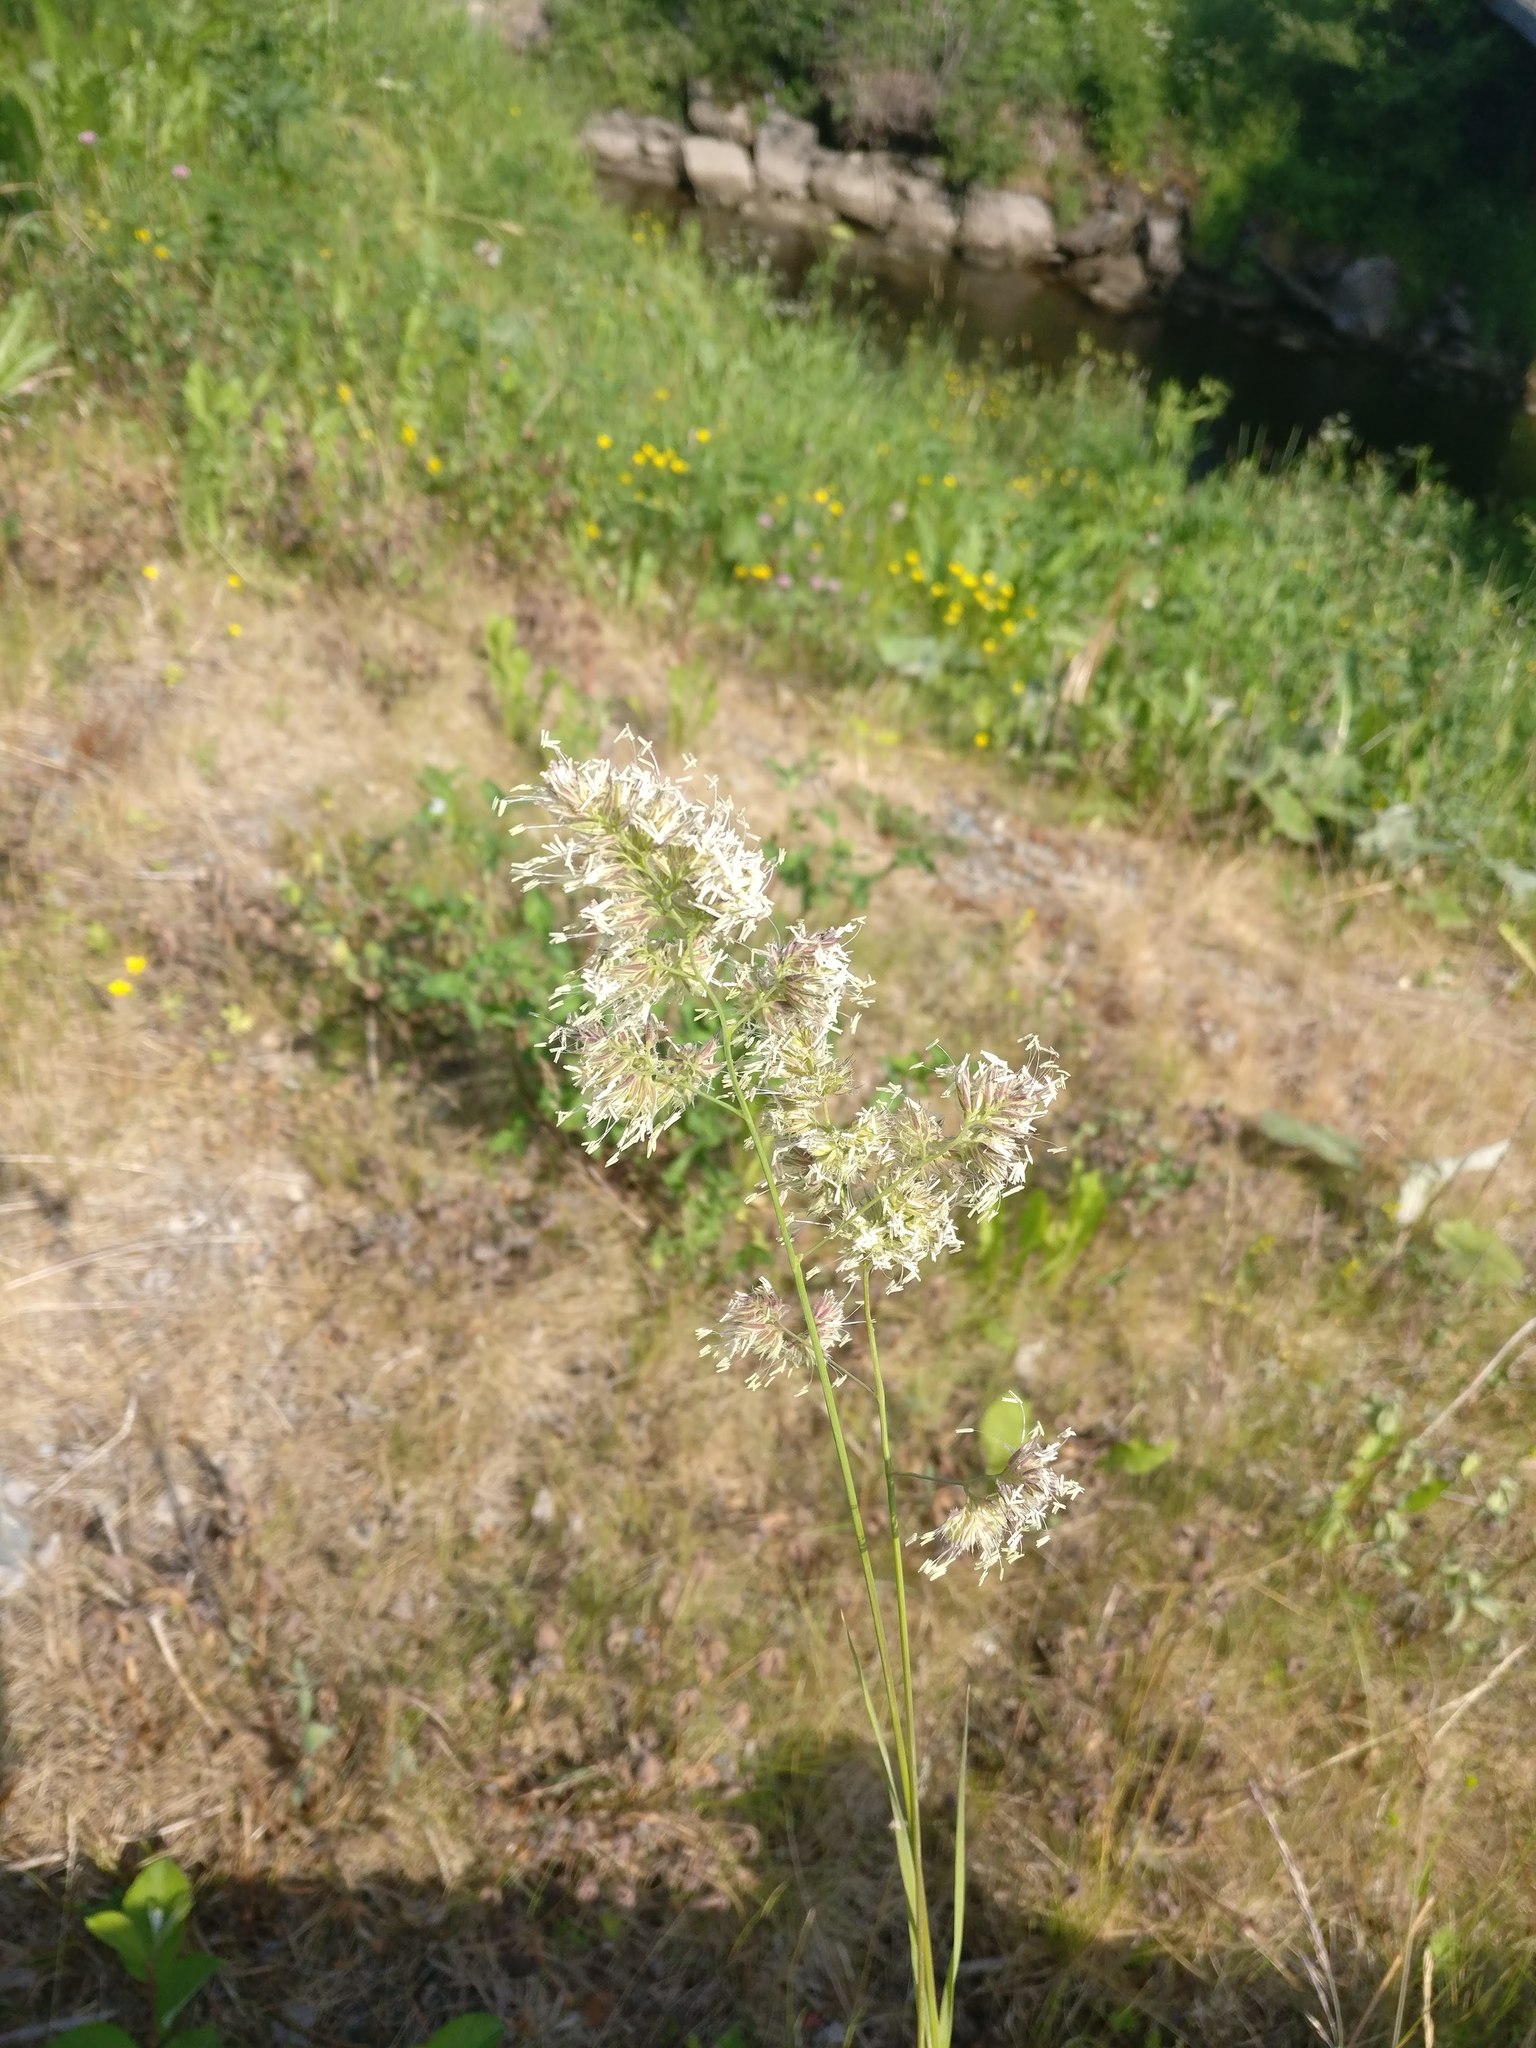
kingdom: Plantae
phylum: Tracheophyta
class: Liliopsida
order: Poales
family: Poaceae
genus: Dactylis
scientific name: Dactylis glomerata
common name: Orchardgrass
